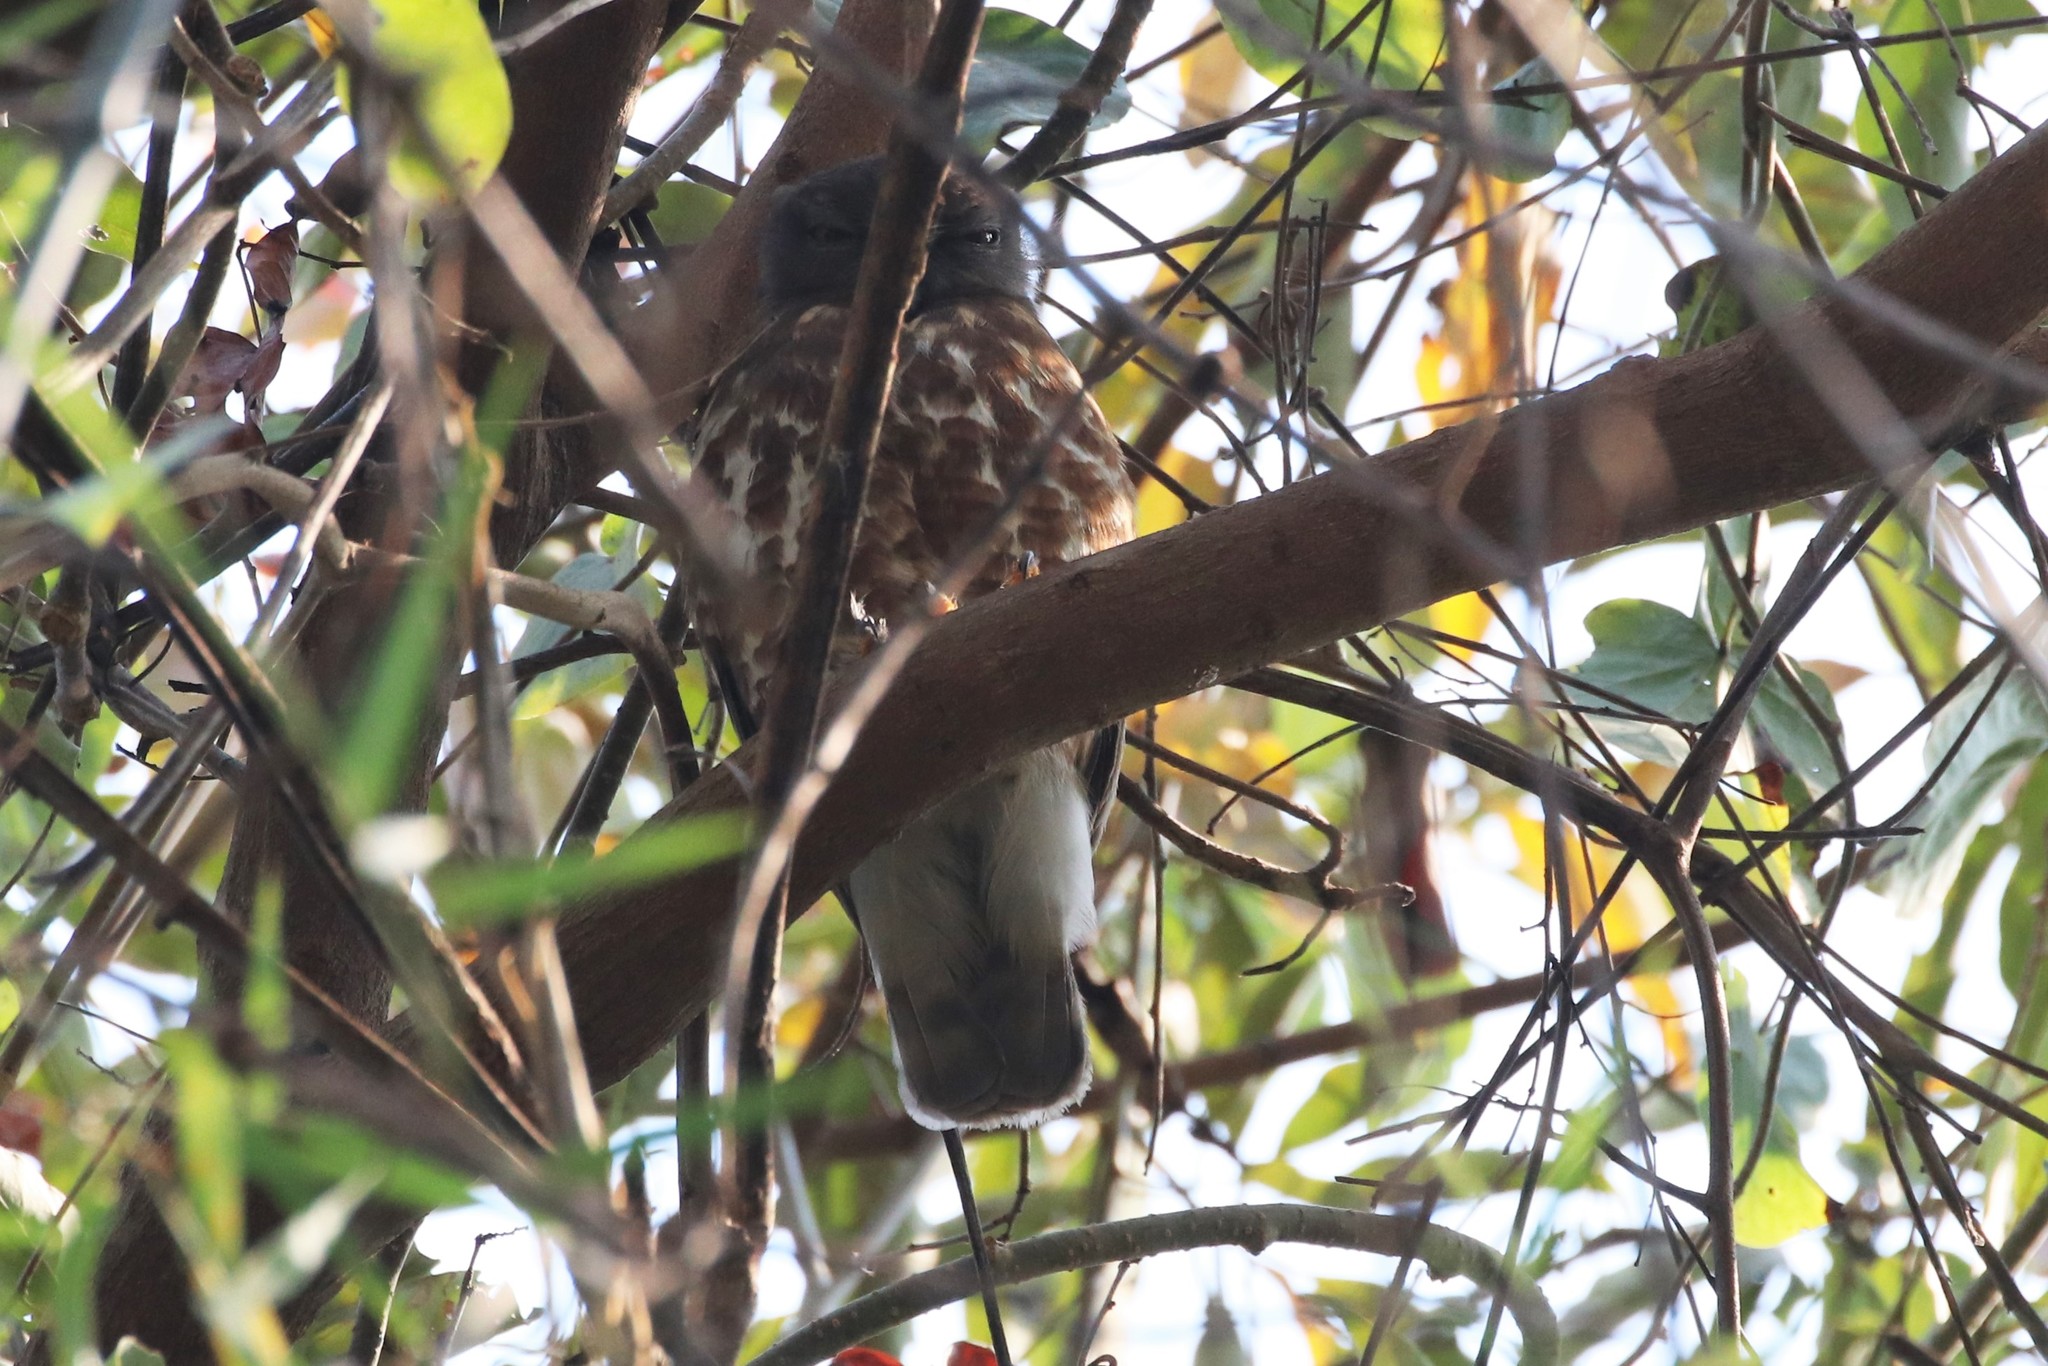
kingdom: Animalia
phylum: Chordata
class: Aves
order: Strigiformes
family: Strigidae
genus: Ninox
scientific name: Ninox scutulata
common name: Brown hawk-owl
